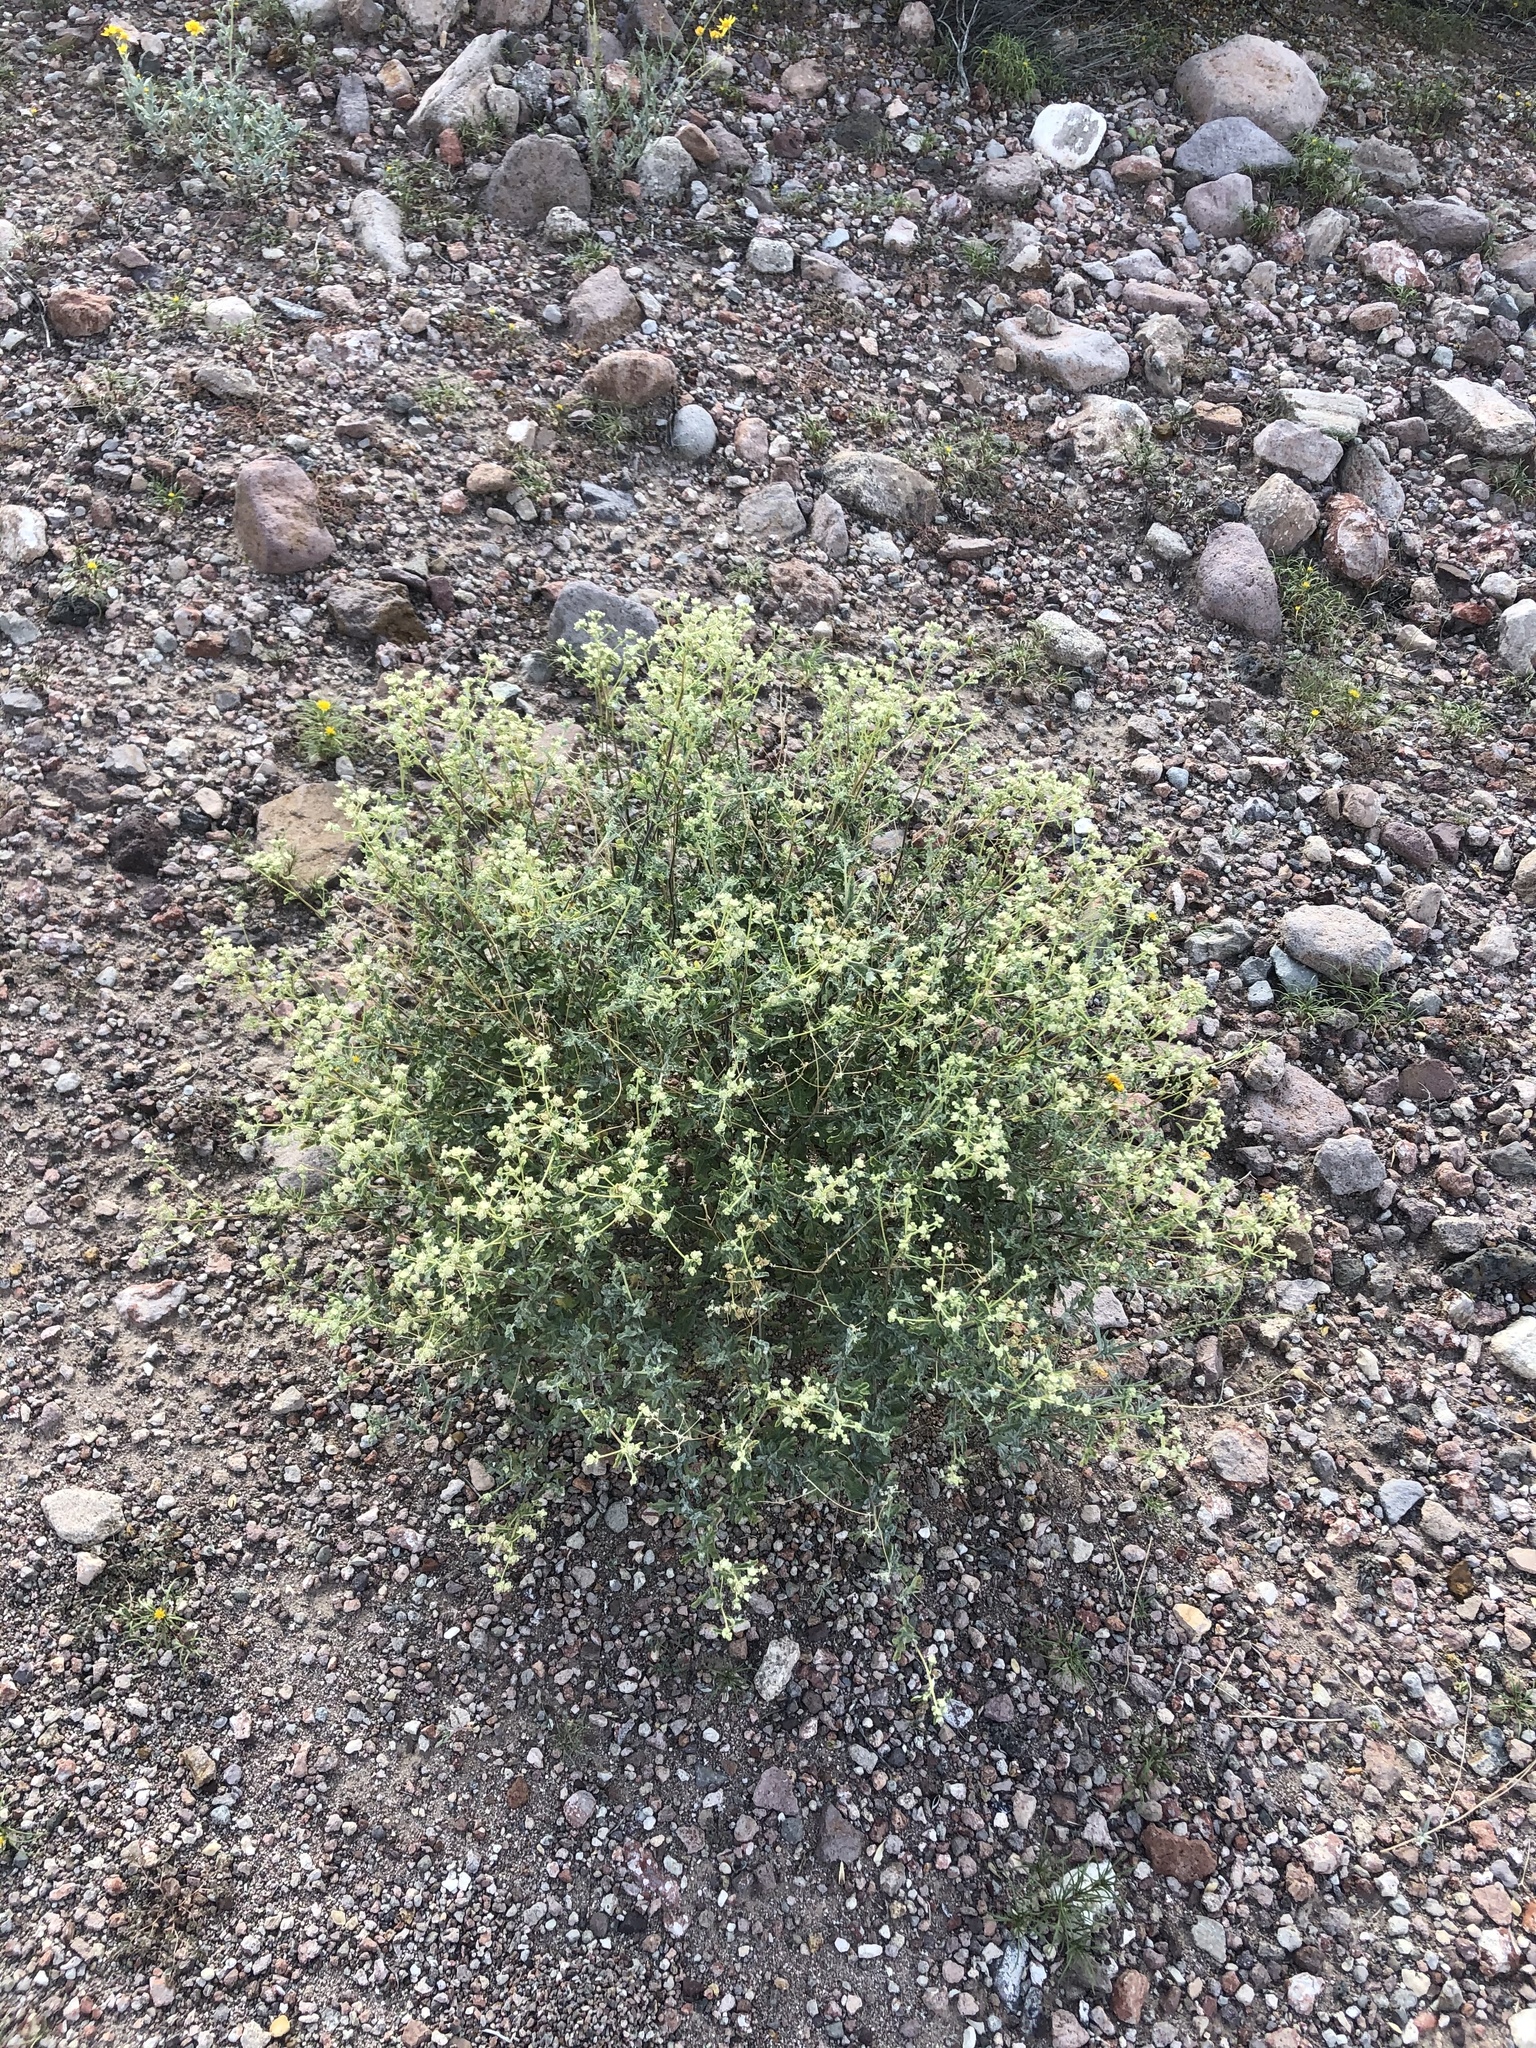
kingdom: Plantae
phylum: Tracheophyta
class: Magnoliopsida
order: Asterales
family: Asteraceae
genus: Parthenium
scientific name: Parthenium incanum
